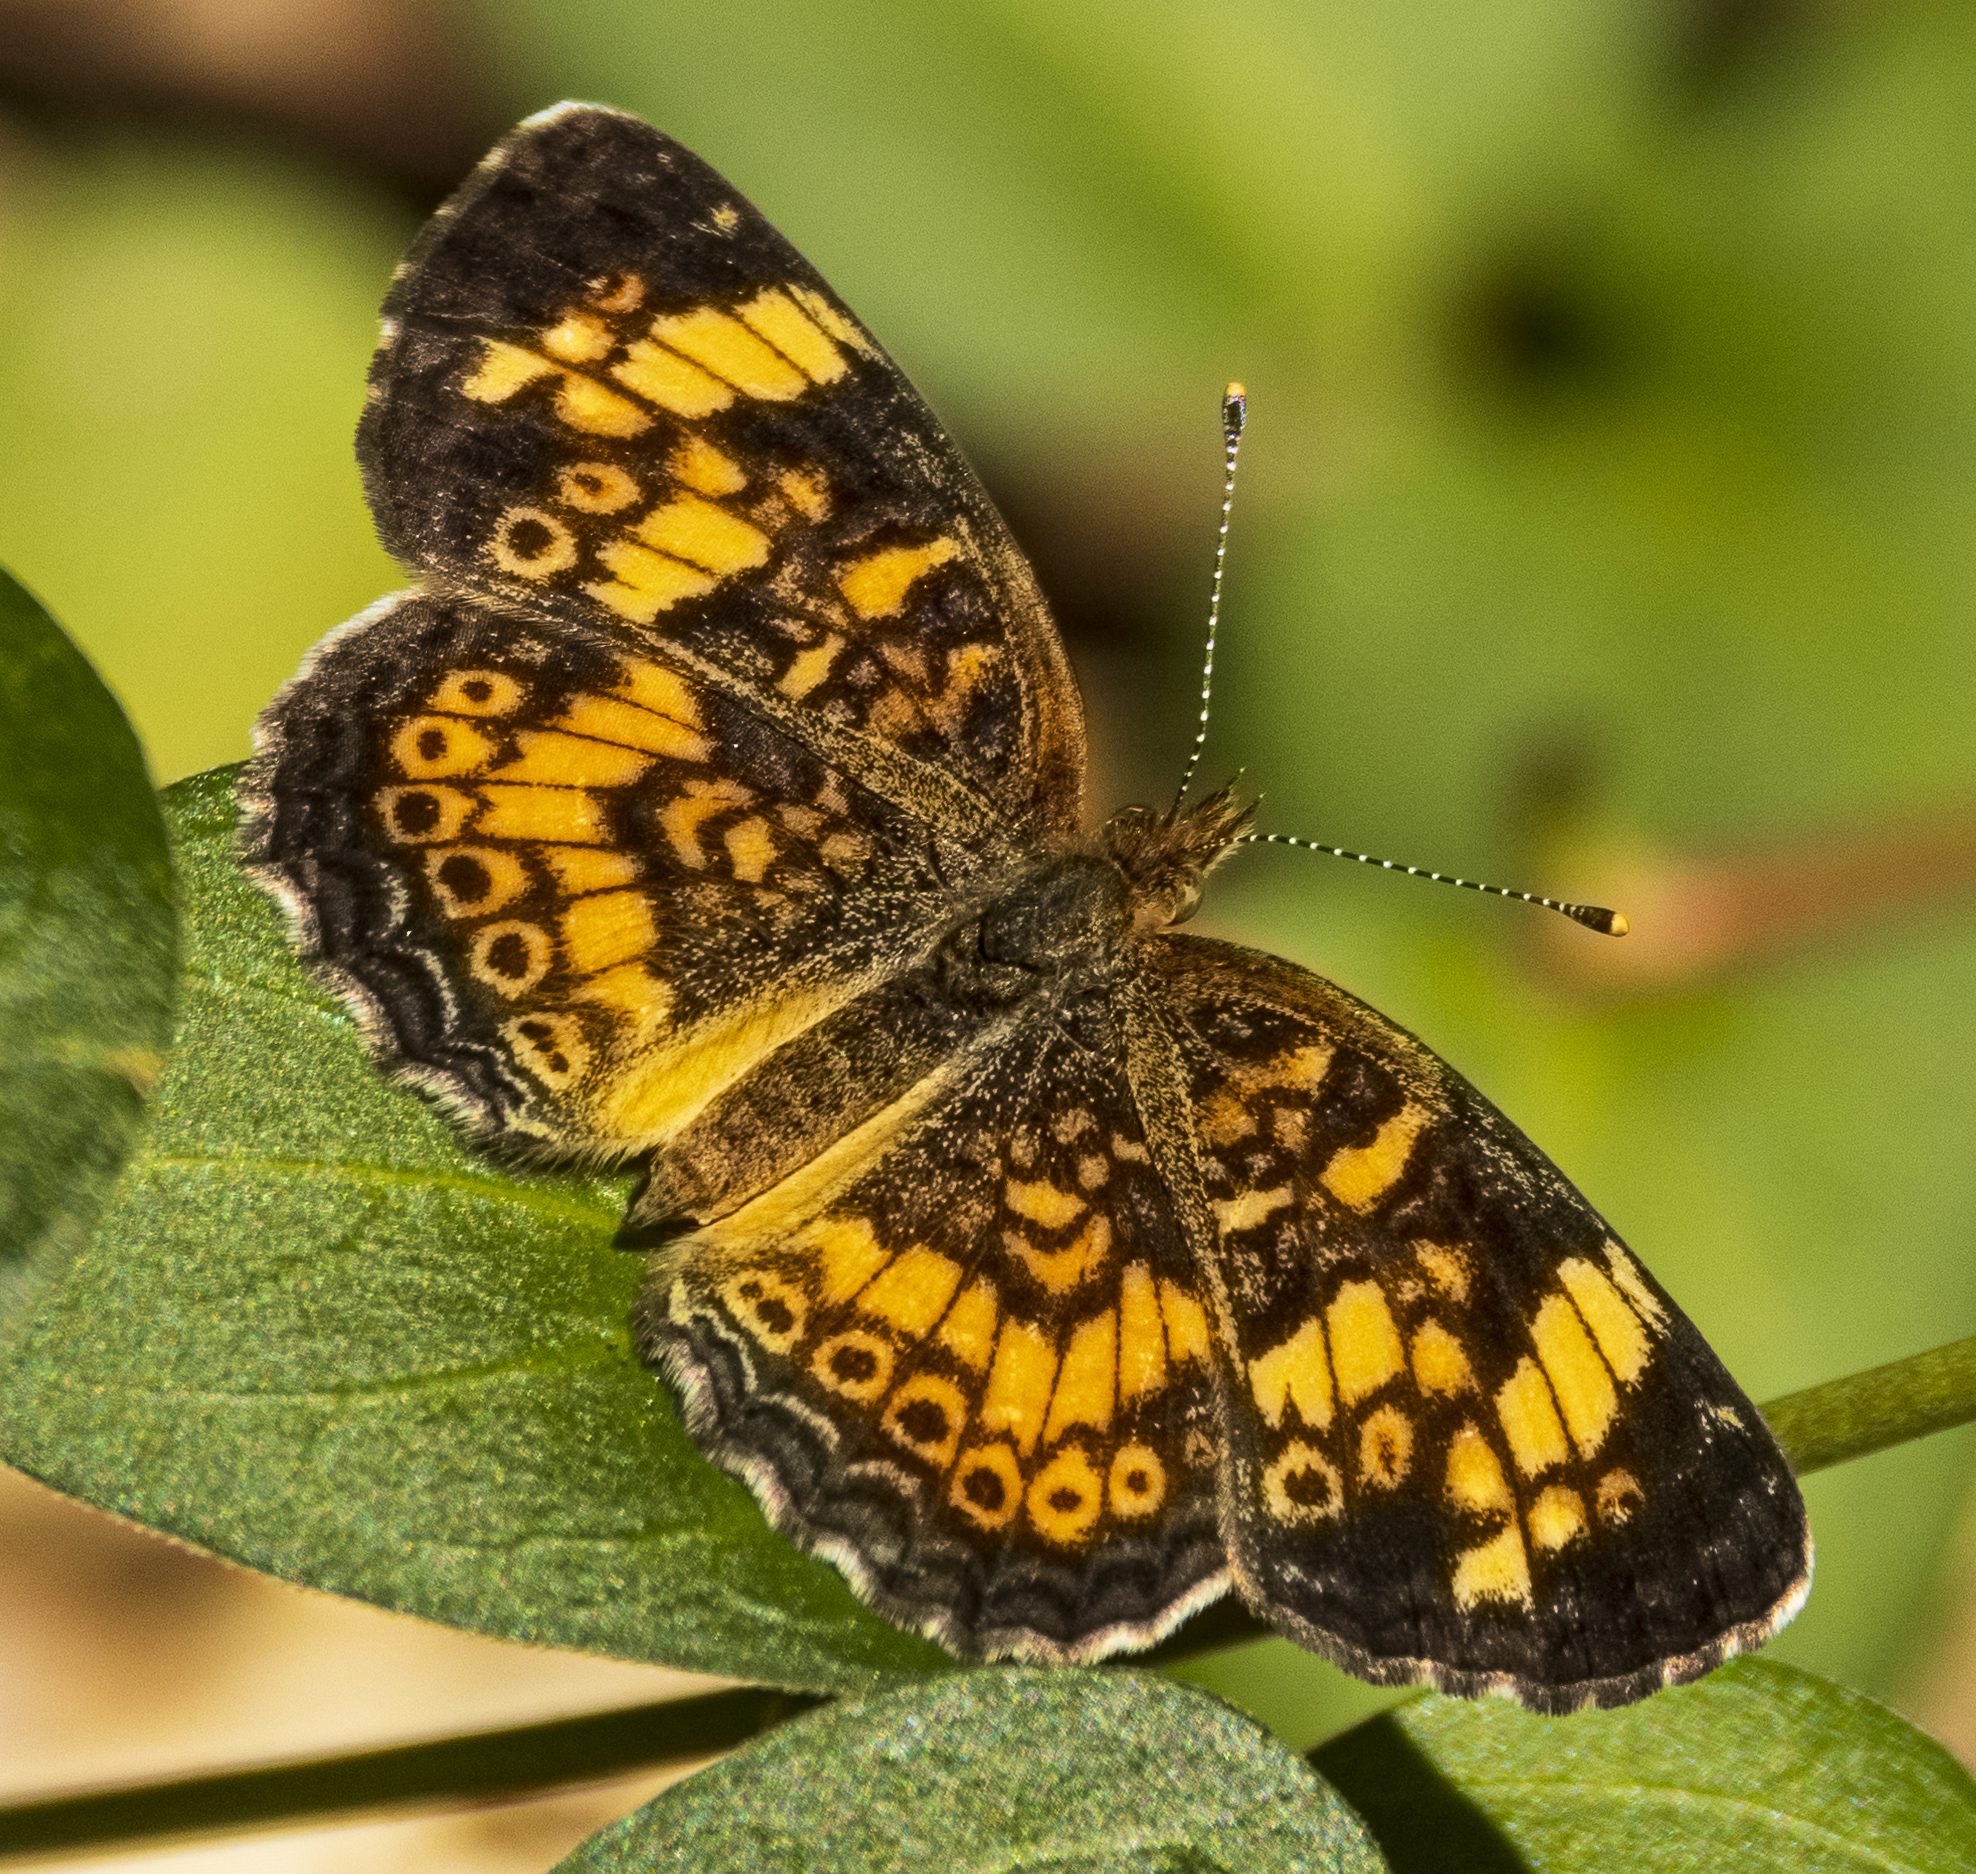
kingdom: Animalia
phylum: Arthropoda
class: Insecta
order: Lepidoptera
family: Nymphalidae
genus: Phyciodes
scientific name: Phyciodes tharos
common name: Pearl crescent
